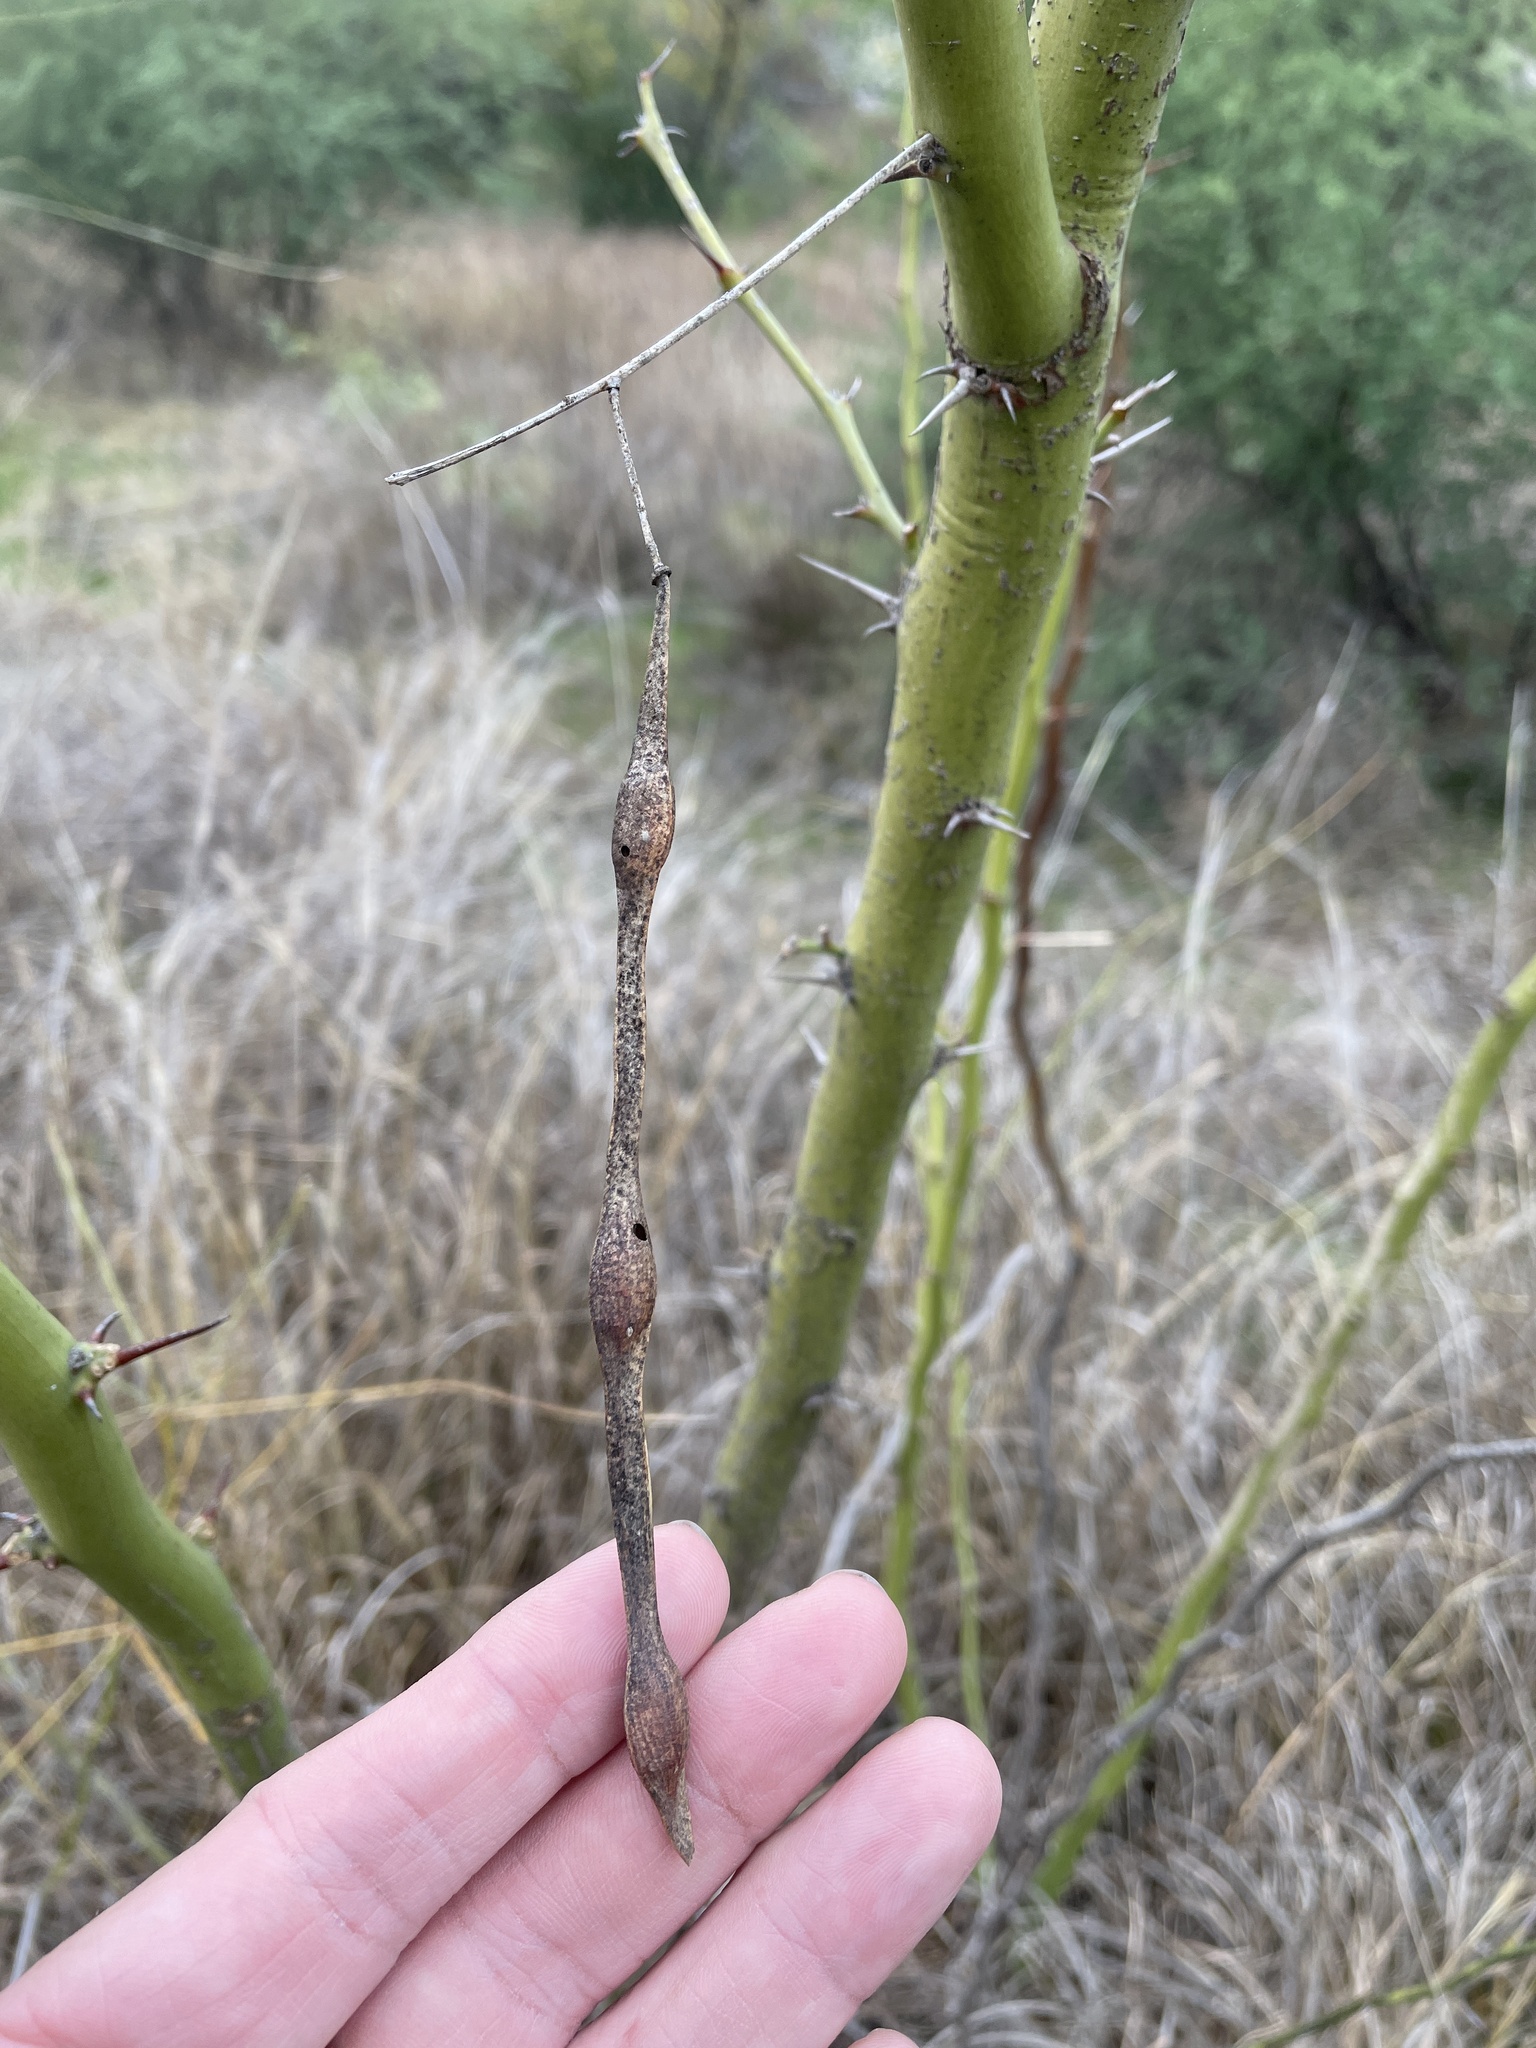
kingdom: Plantae
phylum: Tracheophyta
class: Magnoliopsida
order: Fabales
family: Fabaceae
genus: Parkinsonia
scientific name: Parkinsonia aculeata
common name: Jerusalem thorn
